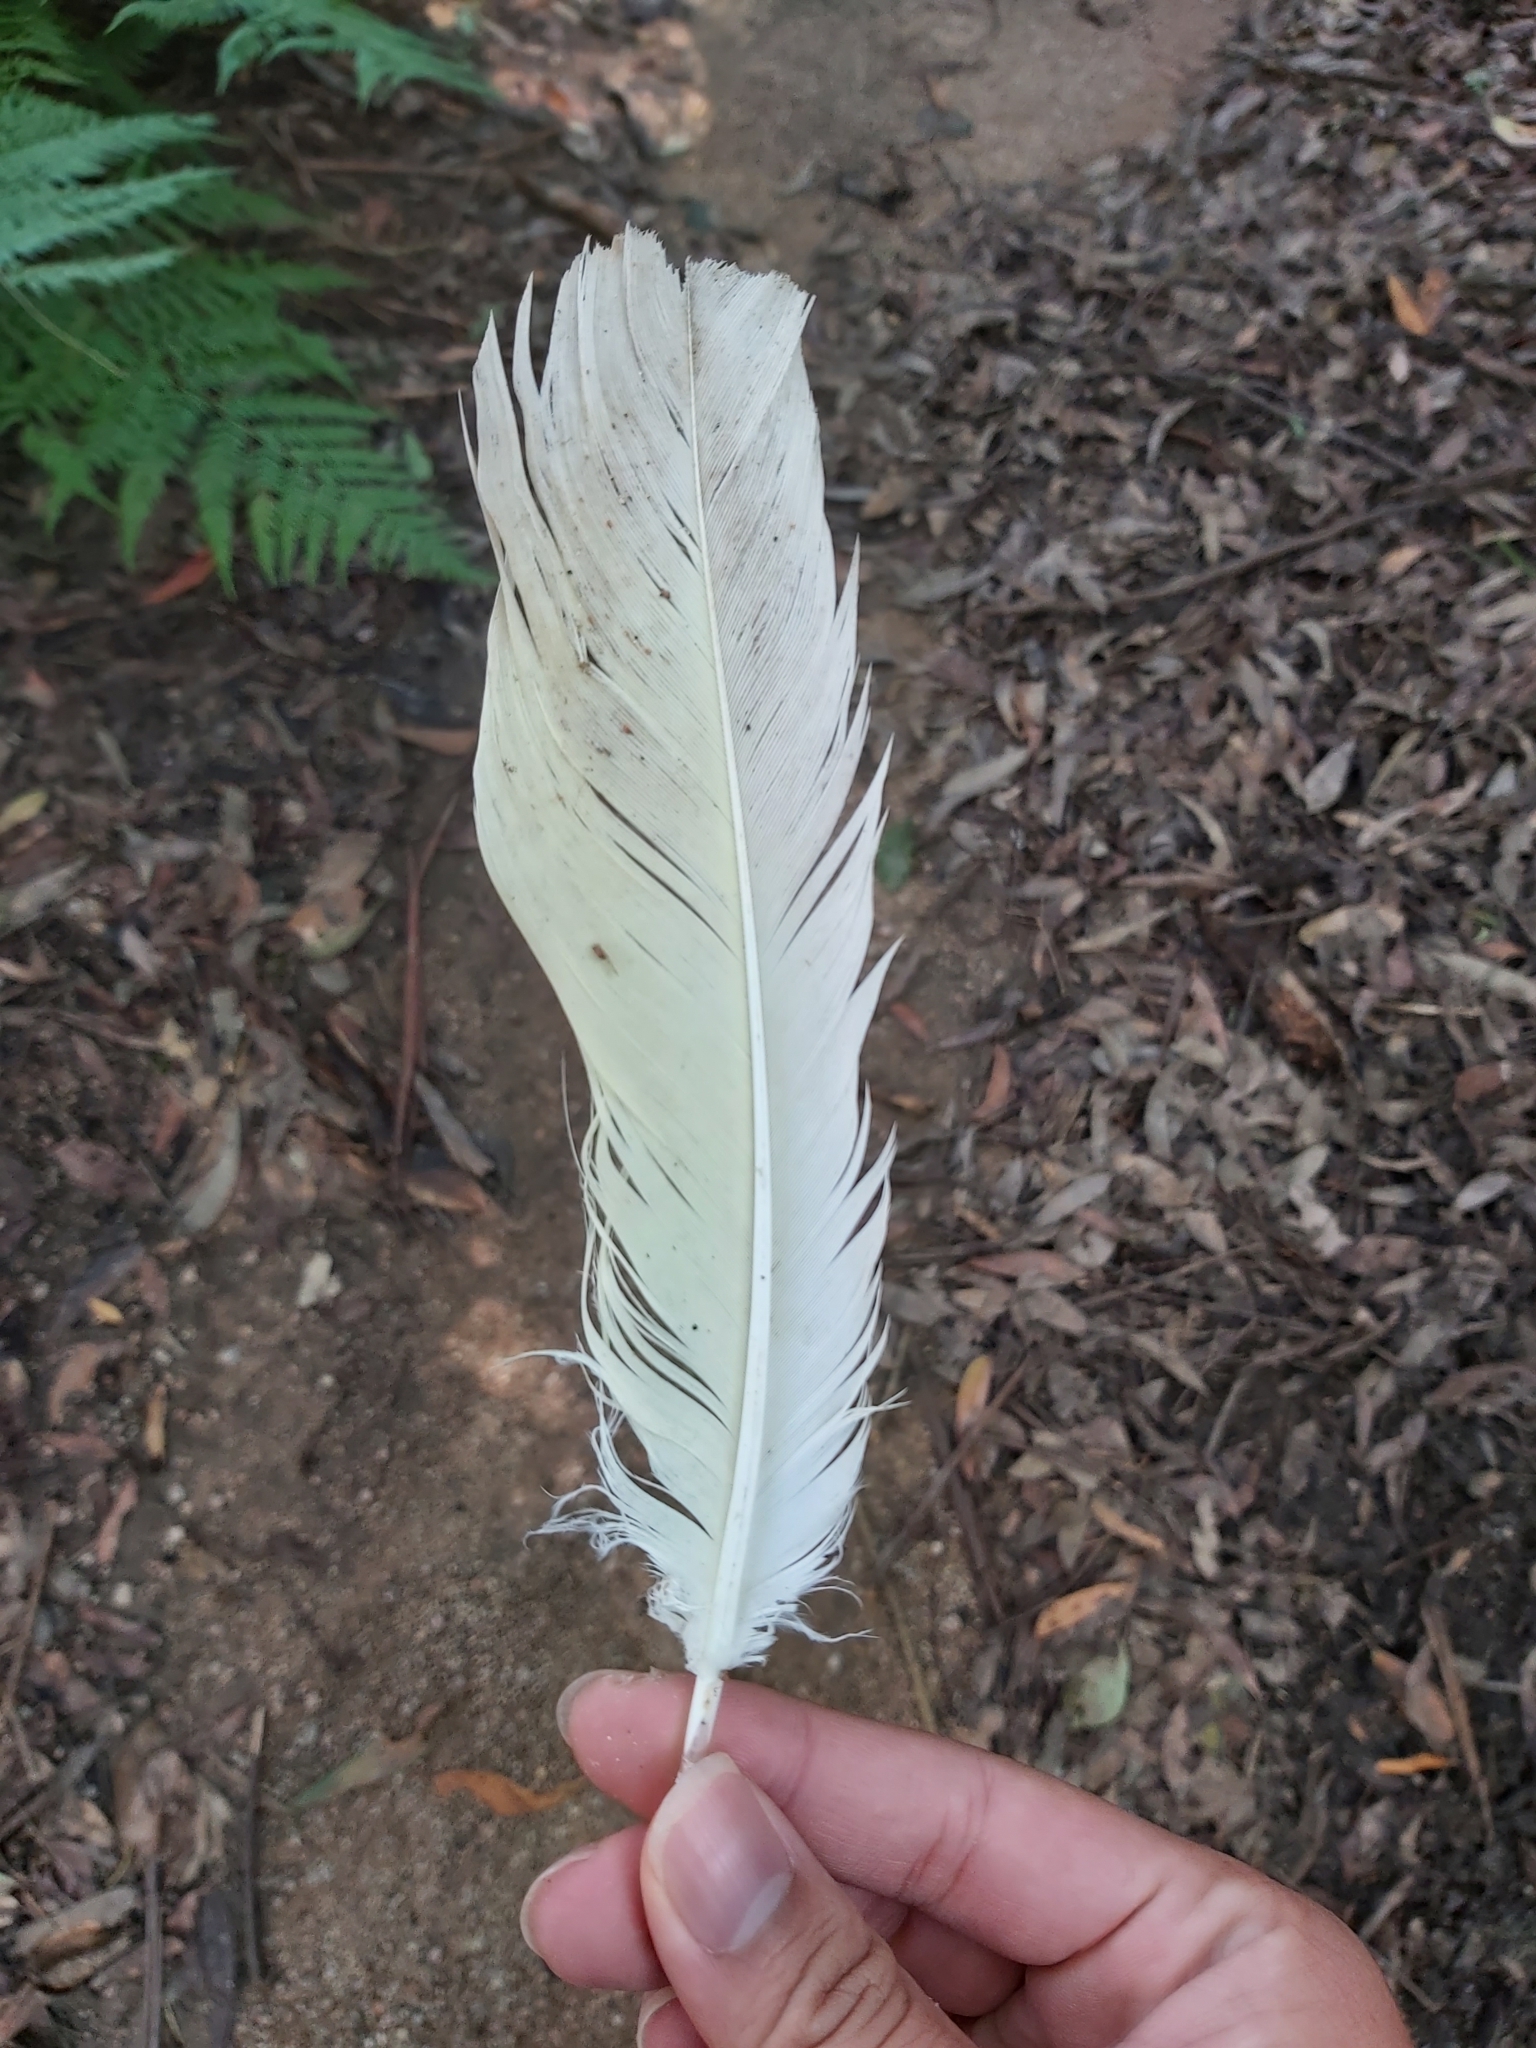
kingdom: Animalia
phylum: Chordata
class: Aves
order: Psittaciformes
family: Psittacidae
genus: Cacatua
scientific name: Cacatua galerita
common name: Sulphur-crested cockatoo
